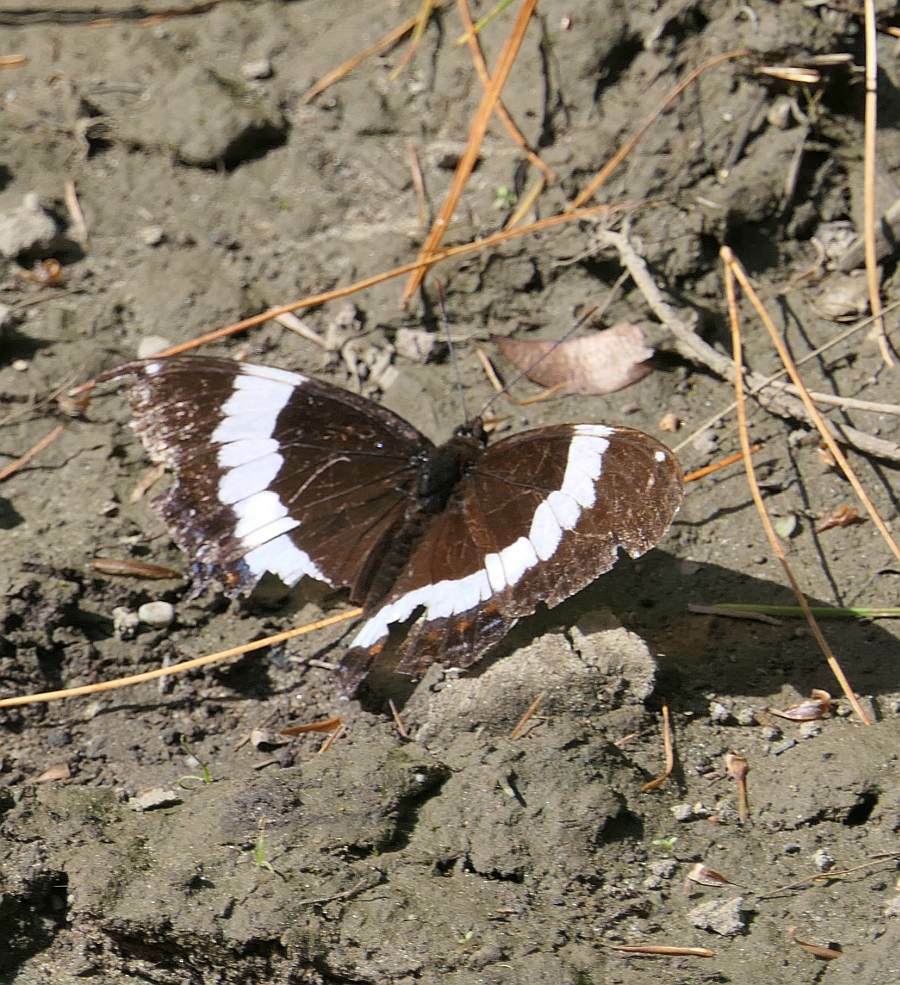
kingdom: Animalia
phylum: Arthropoda
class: Insecta
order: Lepidoptera
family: Nymphalidae
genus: Limenitis
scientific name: Limenitis arthemis
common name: Red-spotted admiral
